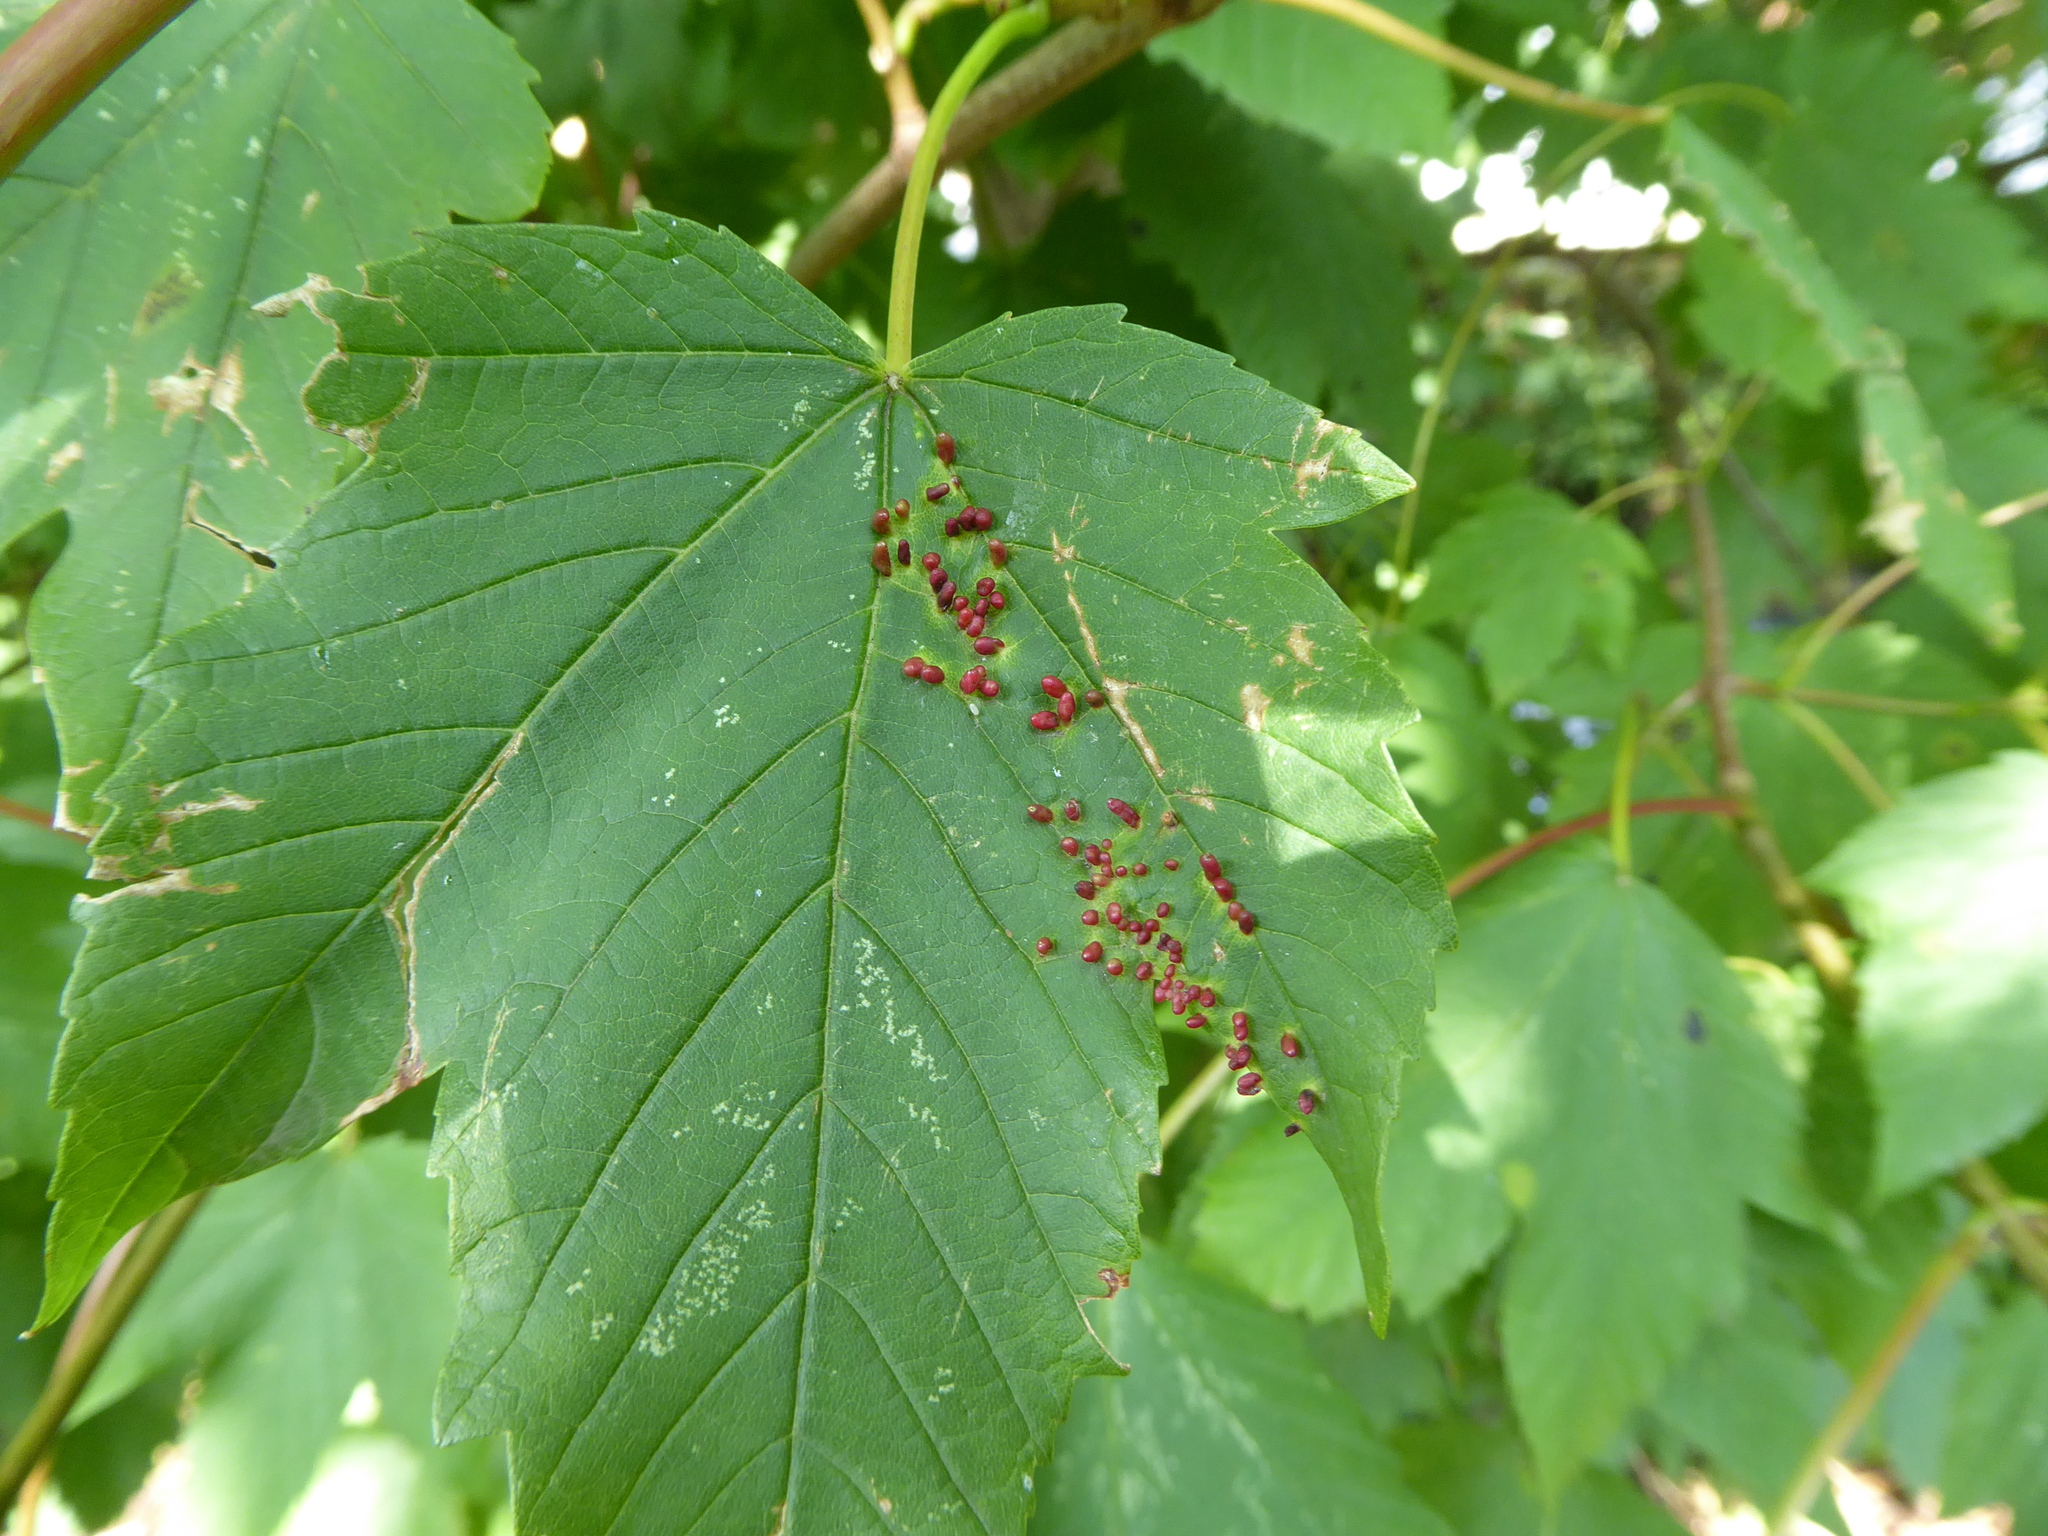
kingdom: Plantae
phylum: Tracheophyta
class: Magnoliopsida
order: Sapindales
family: Sapindaceae
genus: Acer
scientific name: Acer pseudoplatanus
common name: Sycamore
